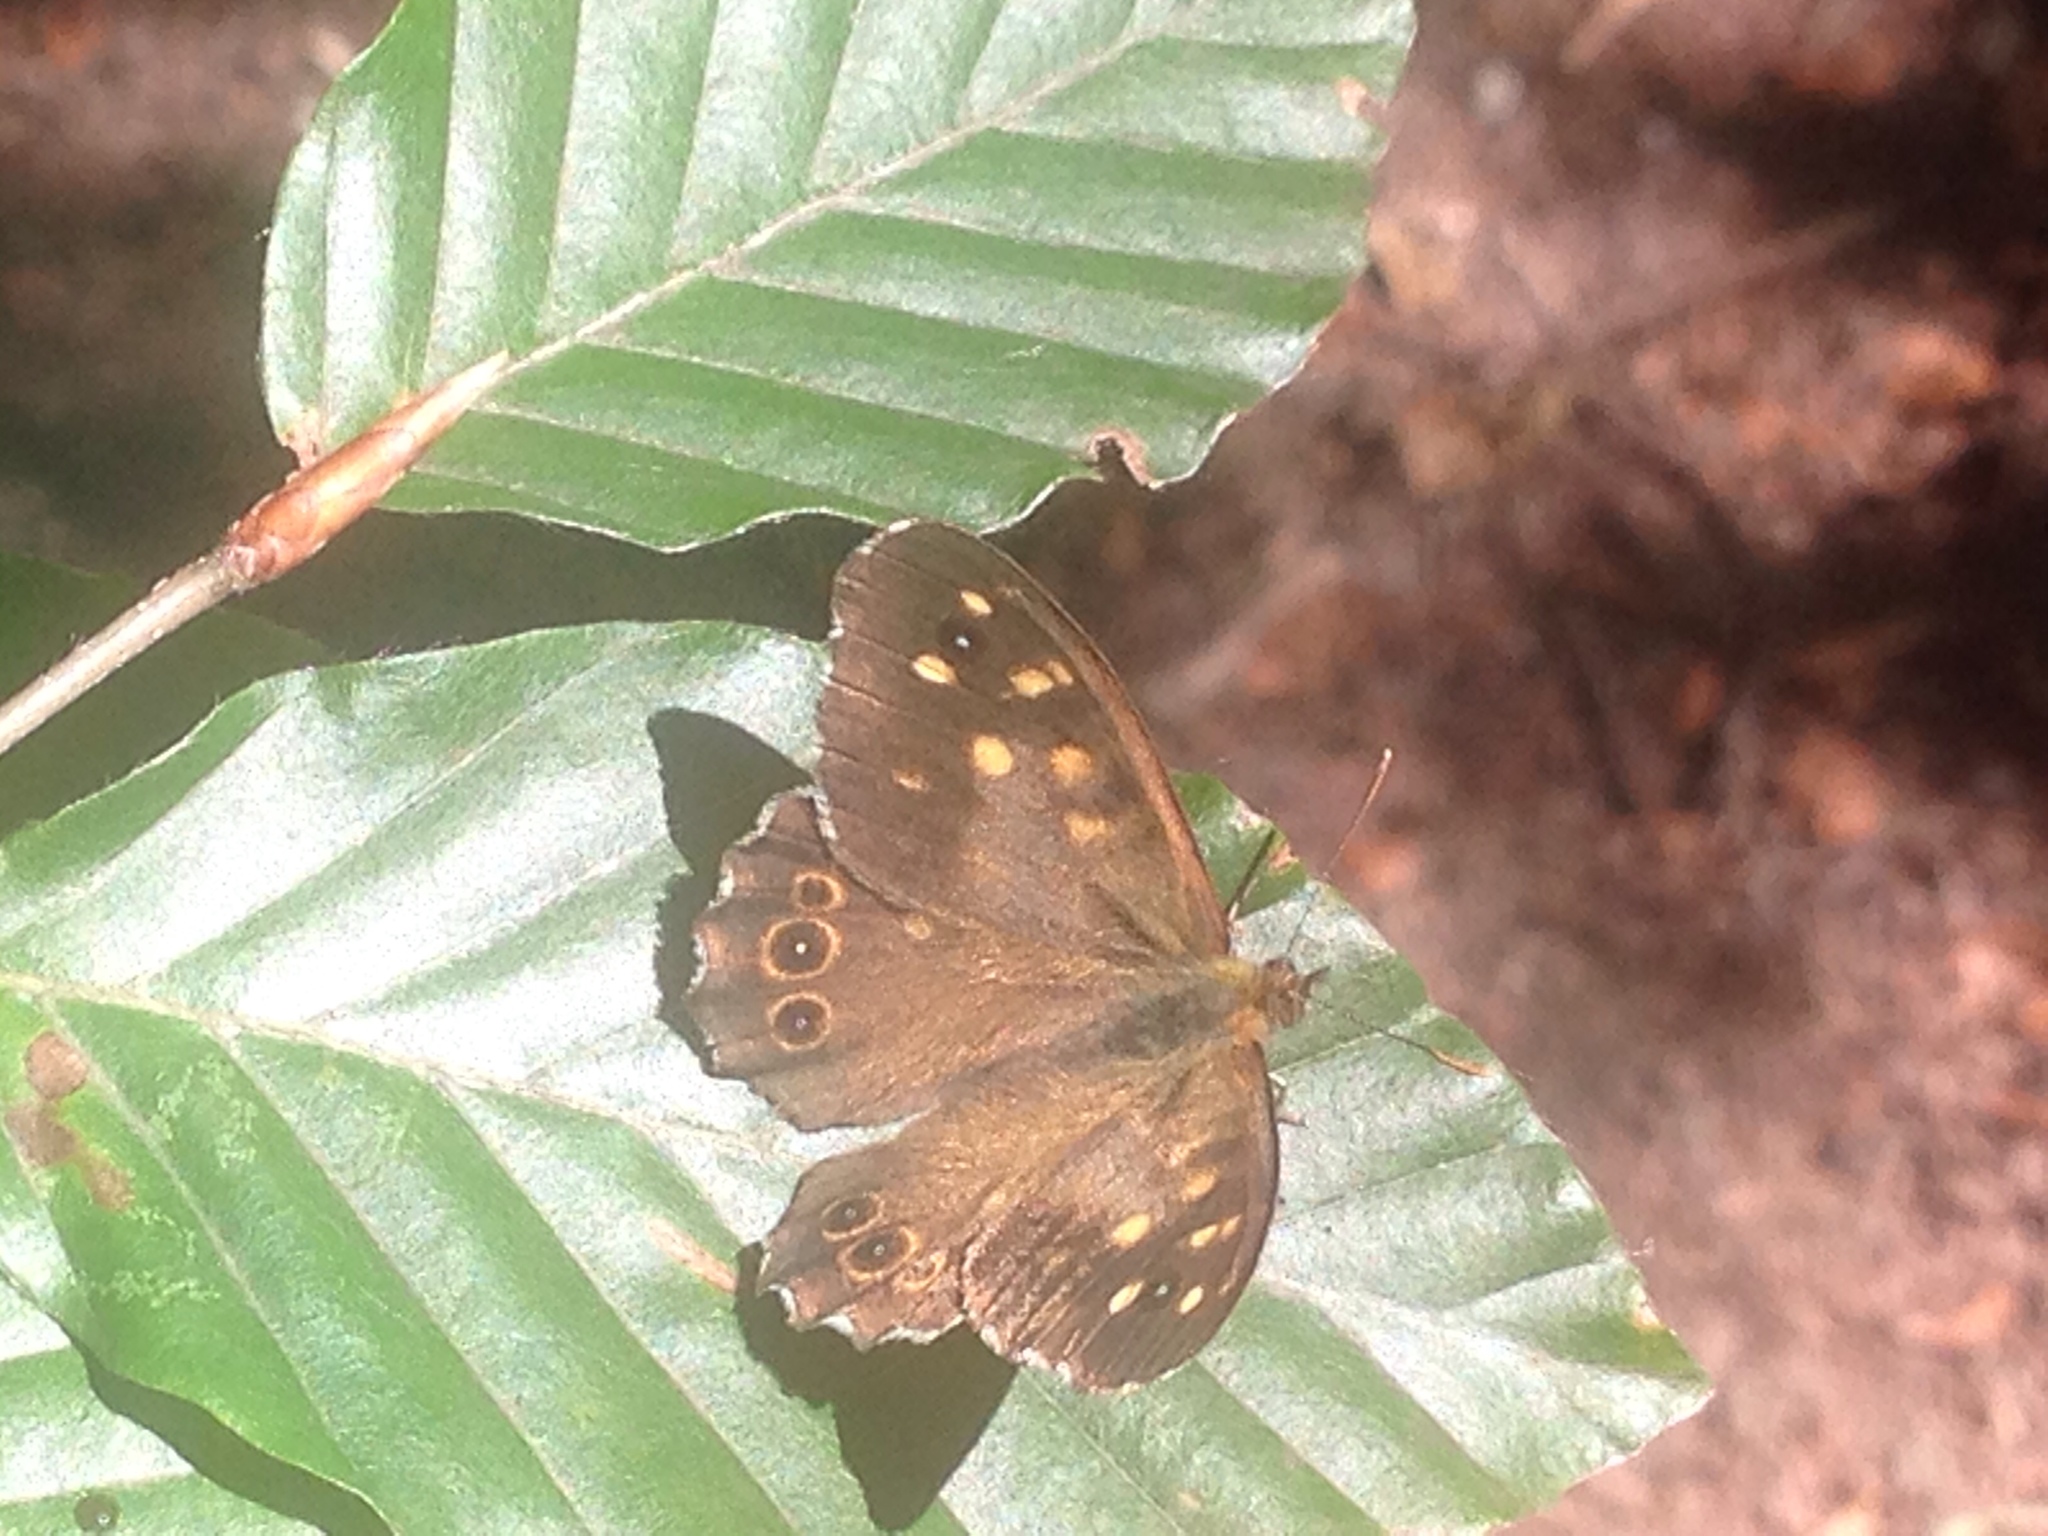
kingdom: Animalia
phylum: Arthropoda
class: Insecta
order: Lepidoptera
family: Nymphalidae
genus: Pararge
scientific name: Pararge aegeria
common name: Speckled wood
